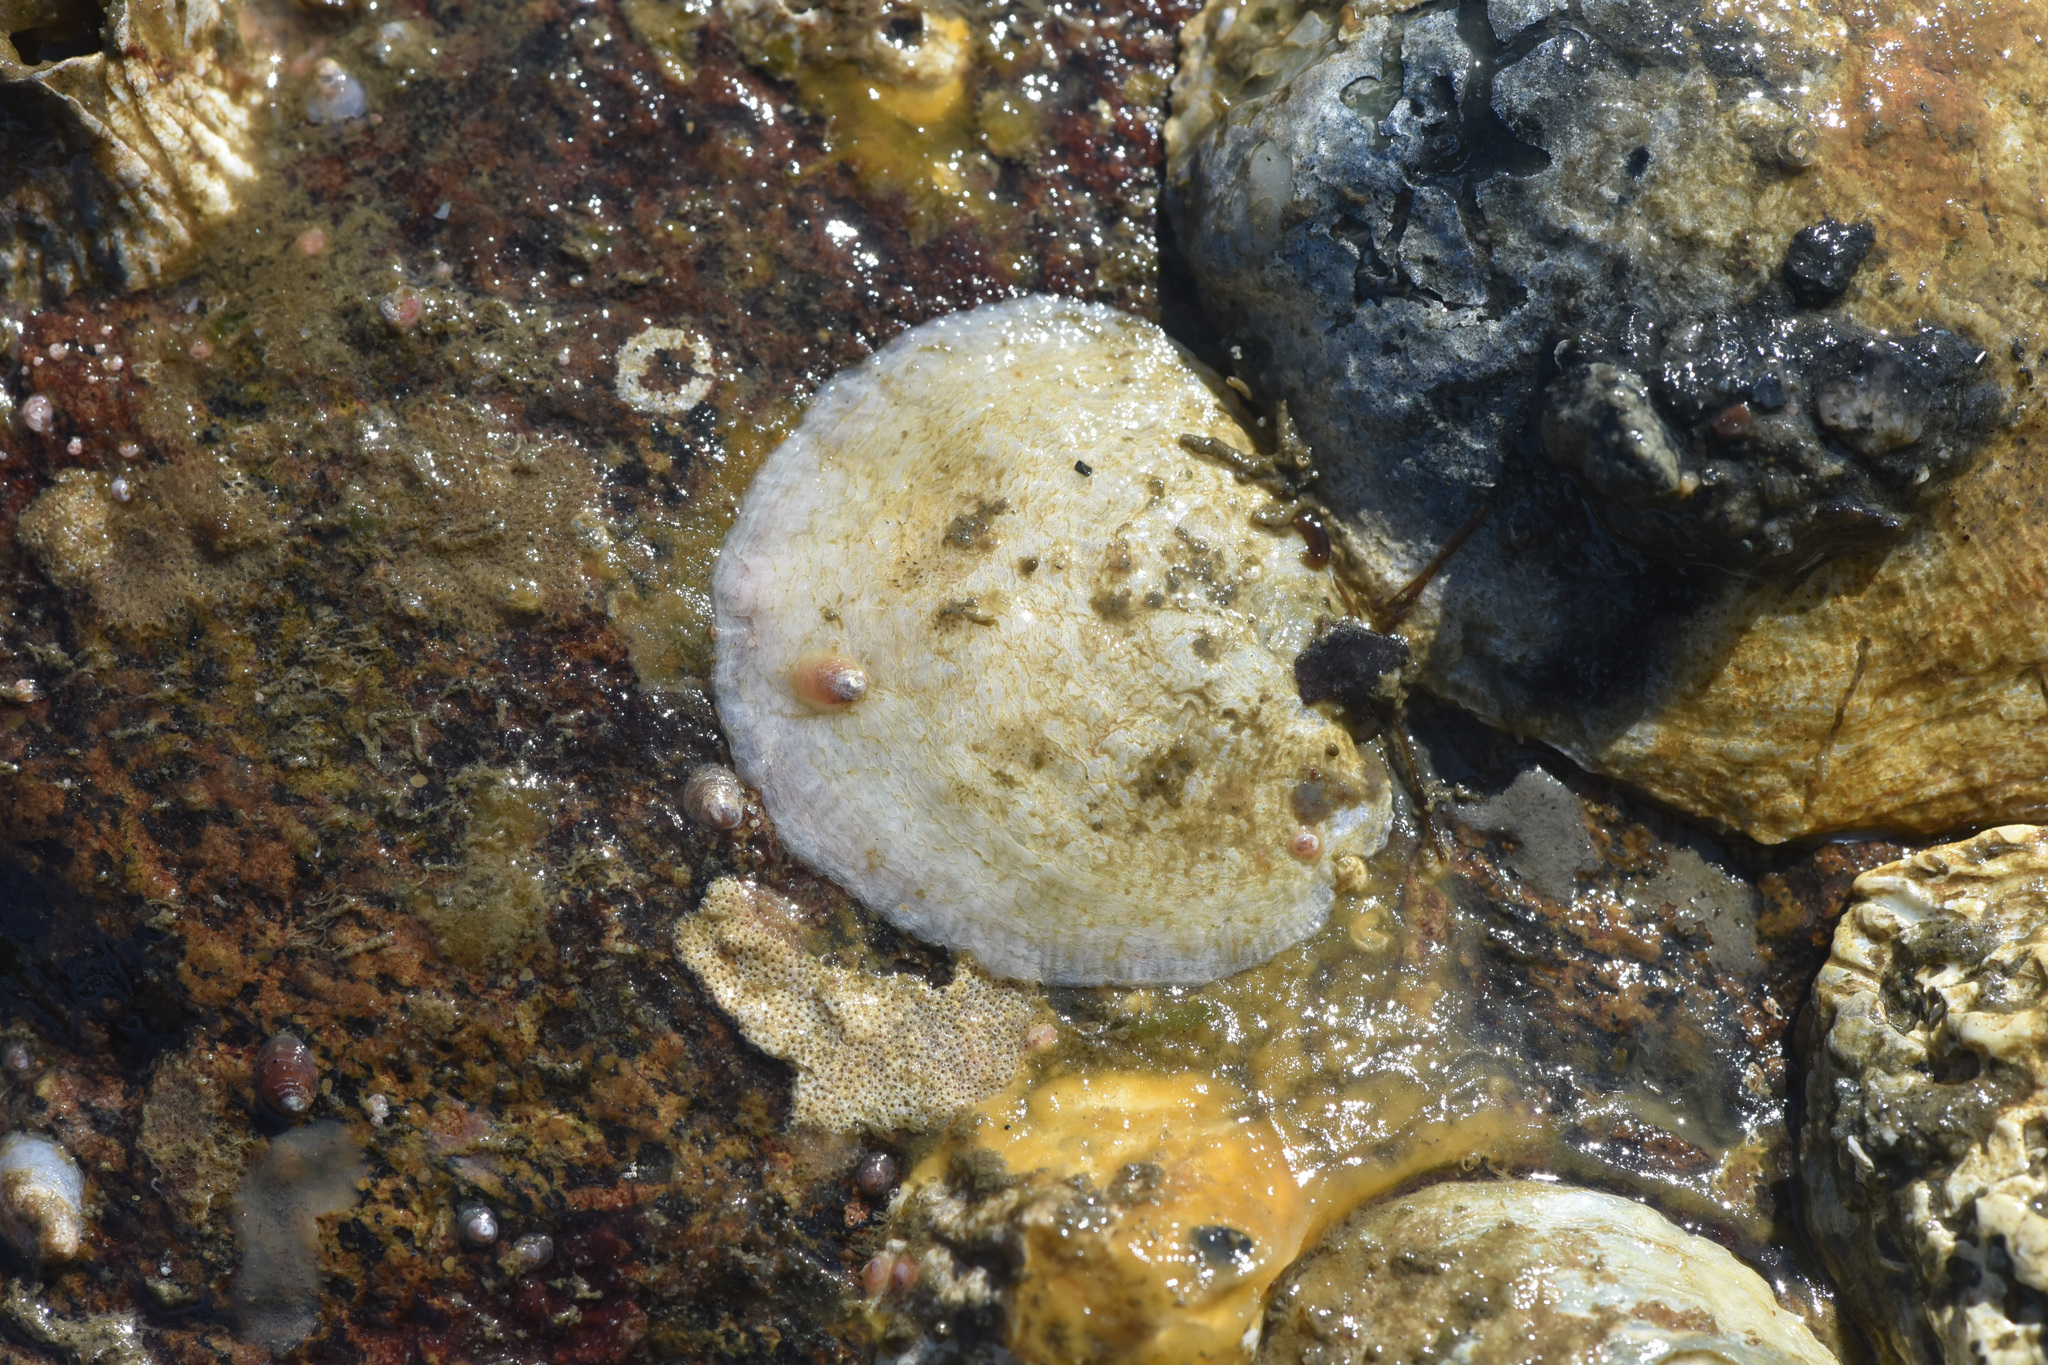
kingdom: Animalia
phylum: Mollusca
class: Bivalvia
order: Pectinida
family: Anomiidae
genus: Pododesmus
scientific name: Pododesmus macrochisma
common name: Alaska jingle
